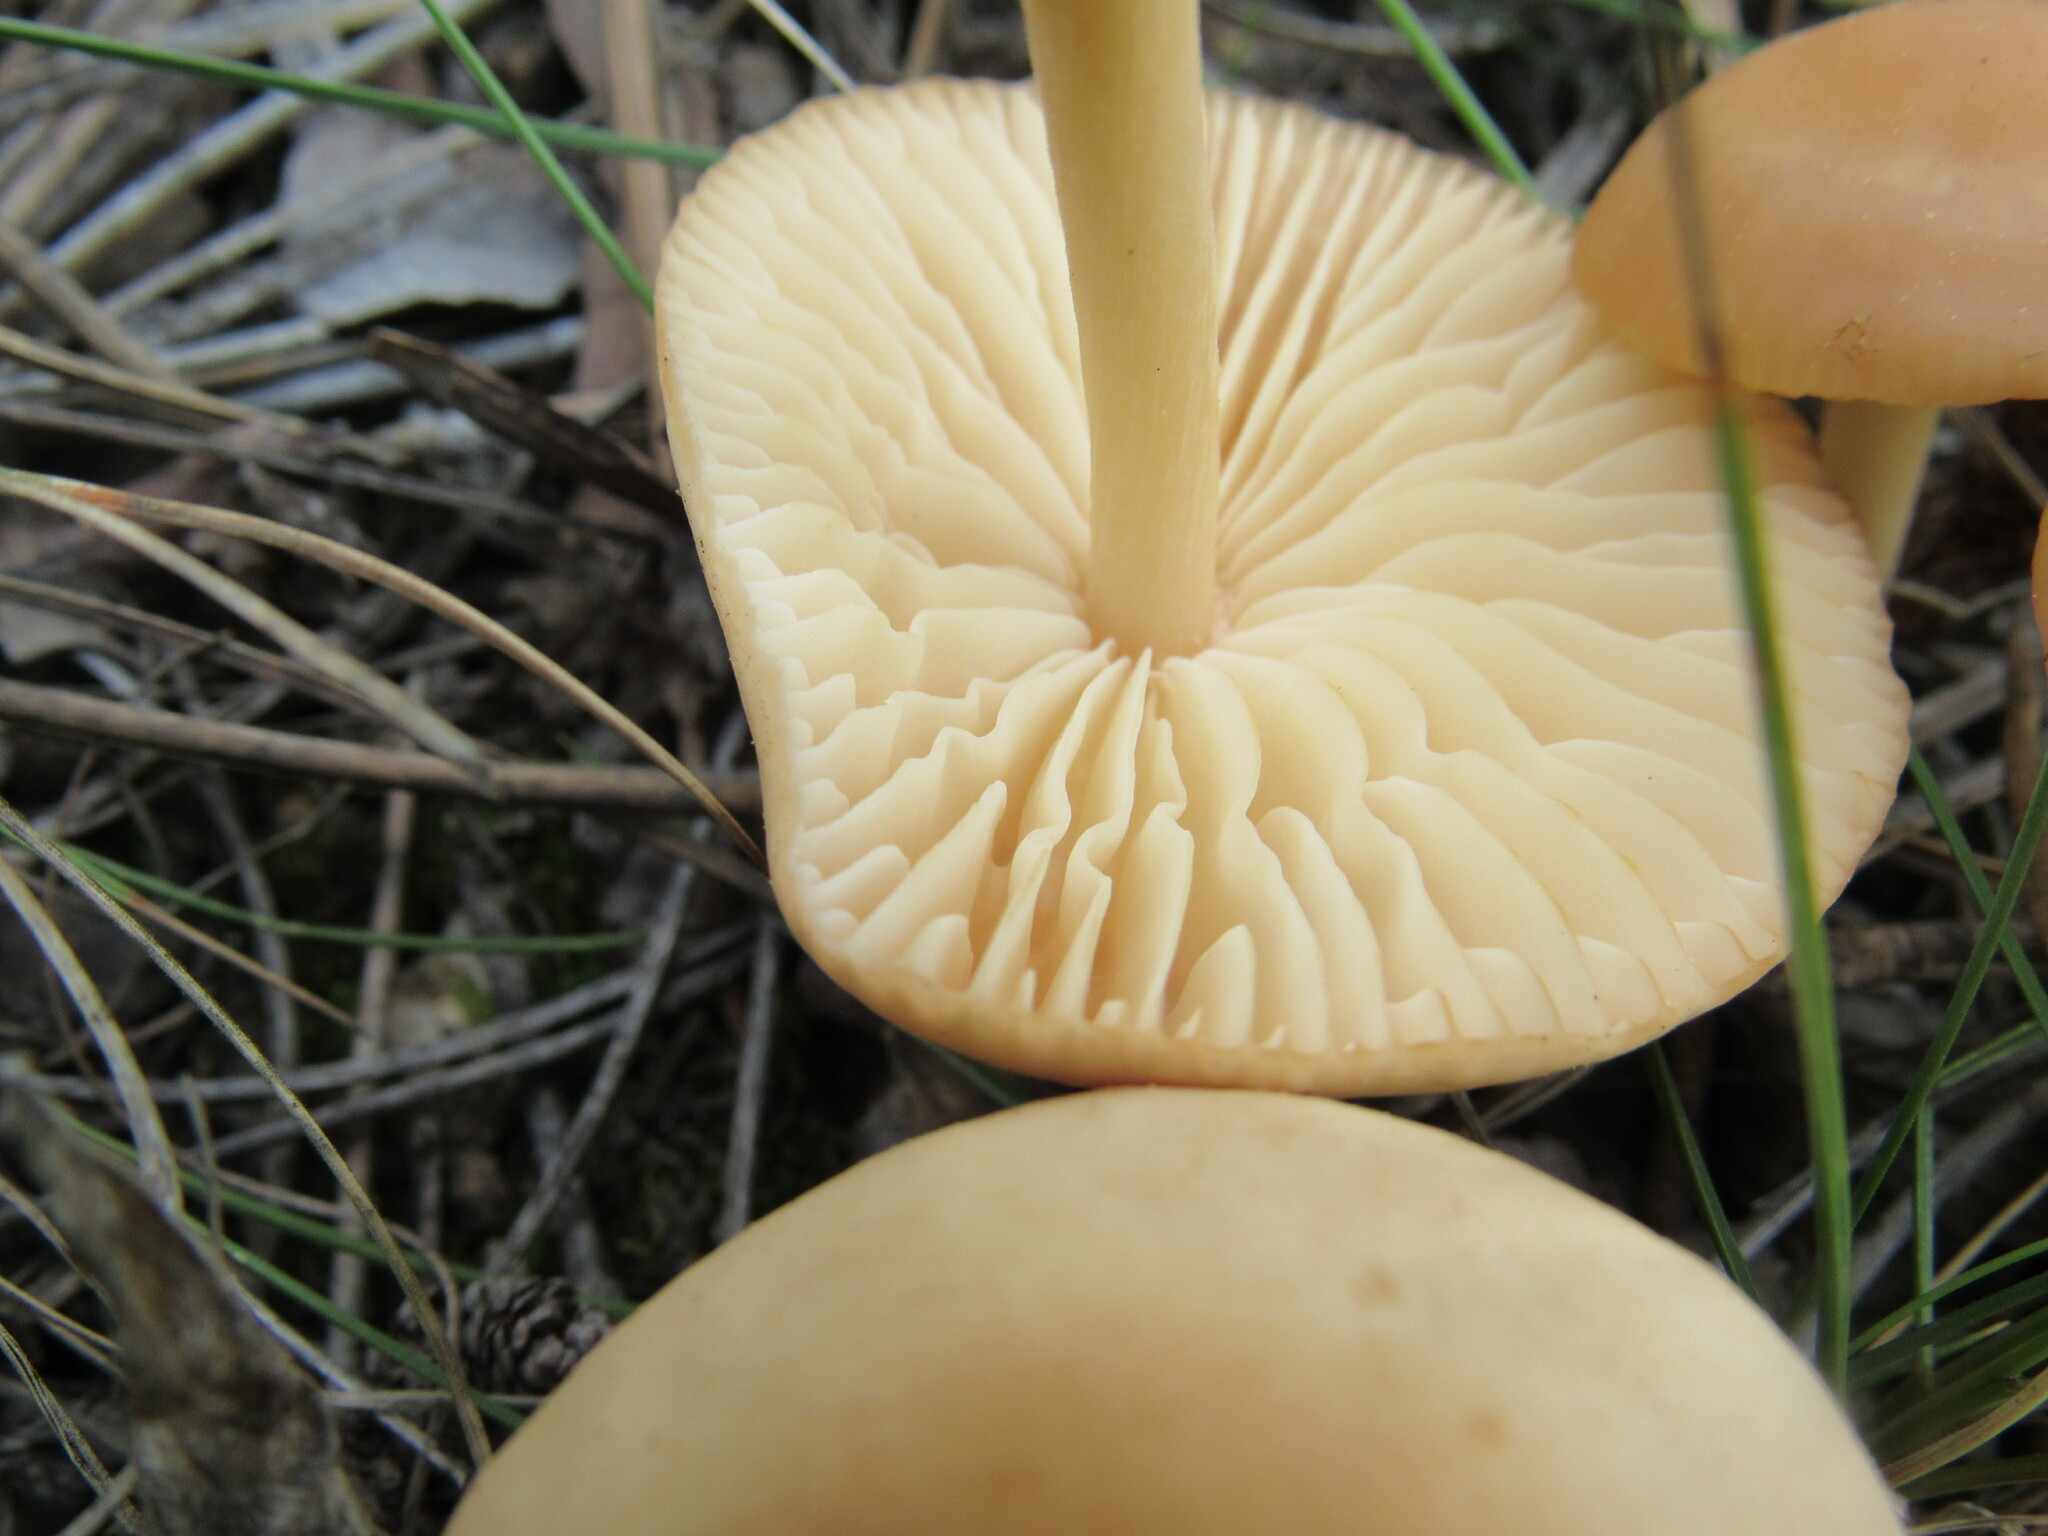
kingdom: Fungi
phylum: Basidiomycota
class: Agaricomycetes
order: Agaricales
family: Marasmiaceae
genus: Marasmius
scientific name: Marasmius oreades
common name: Fairy ring champignon
